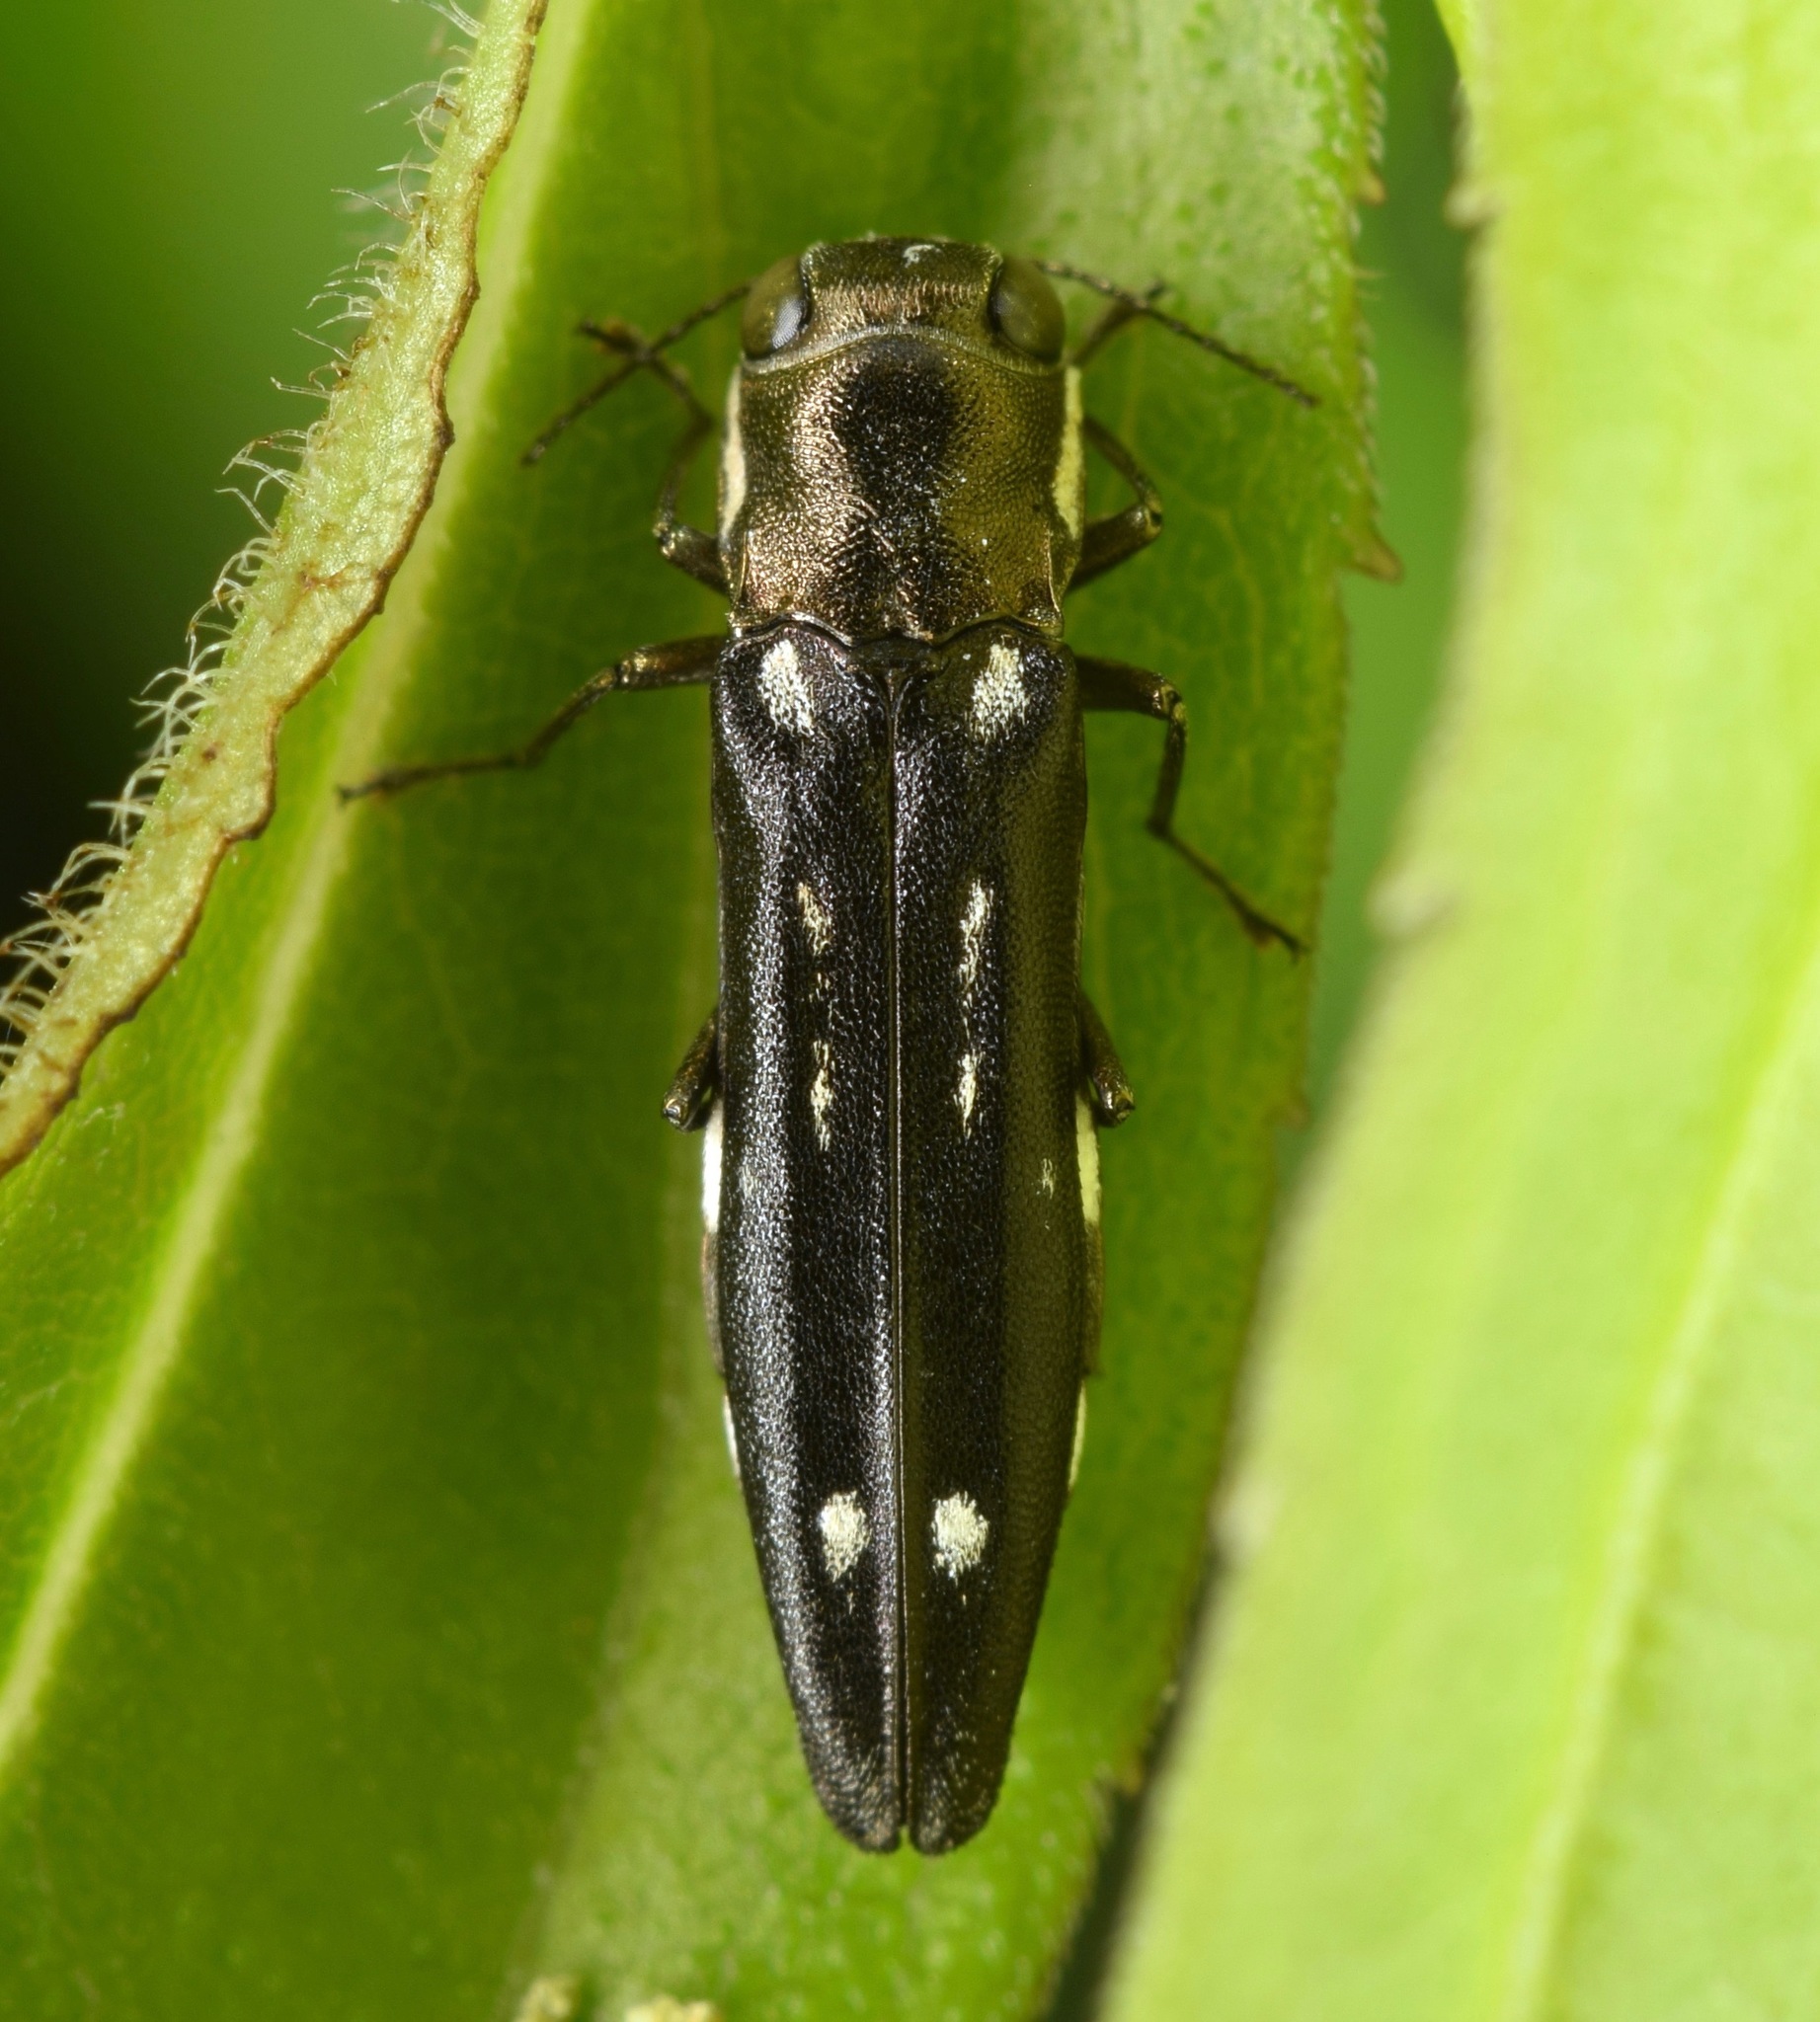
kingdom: Animalia
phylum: Arthropoda
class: Insecta
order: Coleoptera
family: Buprestidae
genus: Agrilus
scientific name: Agrilus obsoletoguttatus
